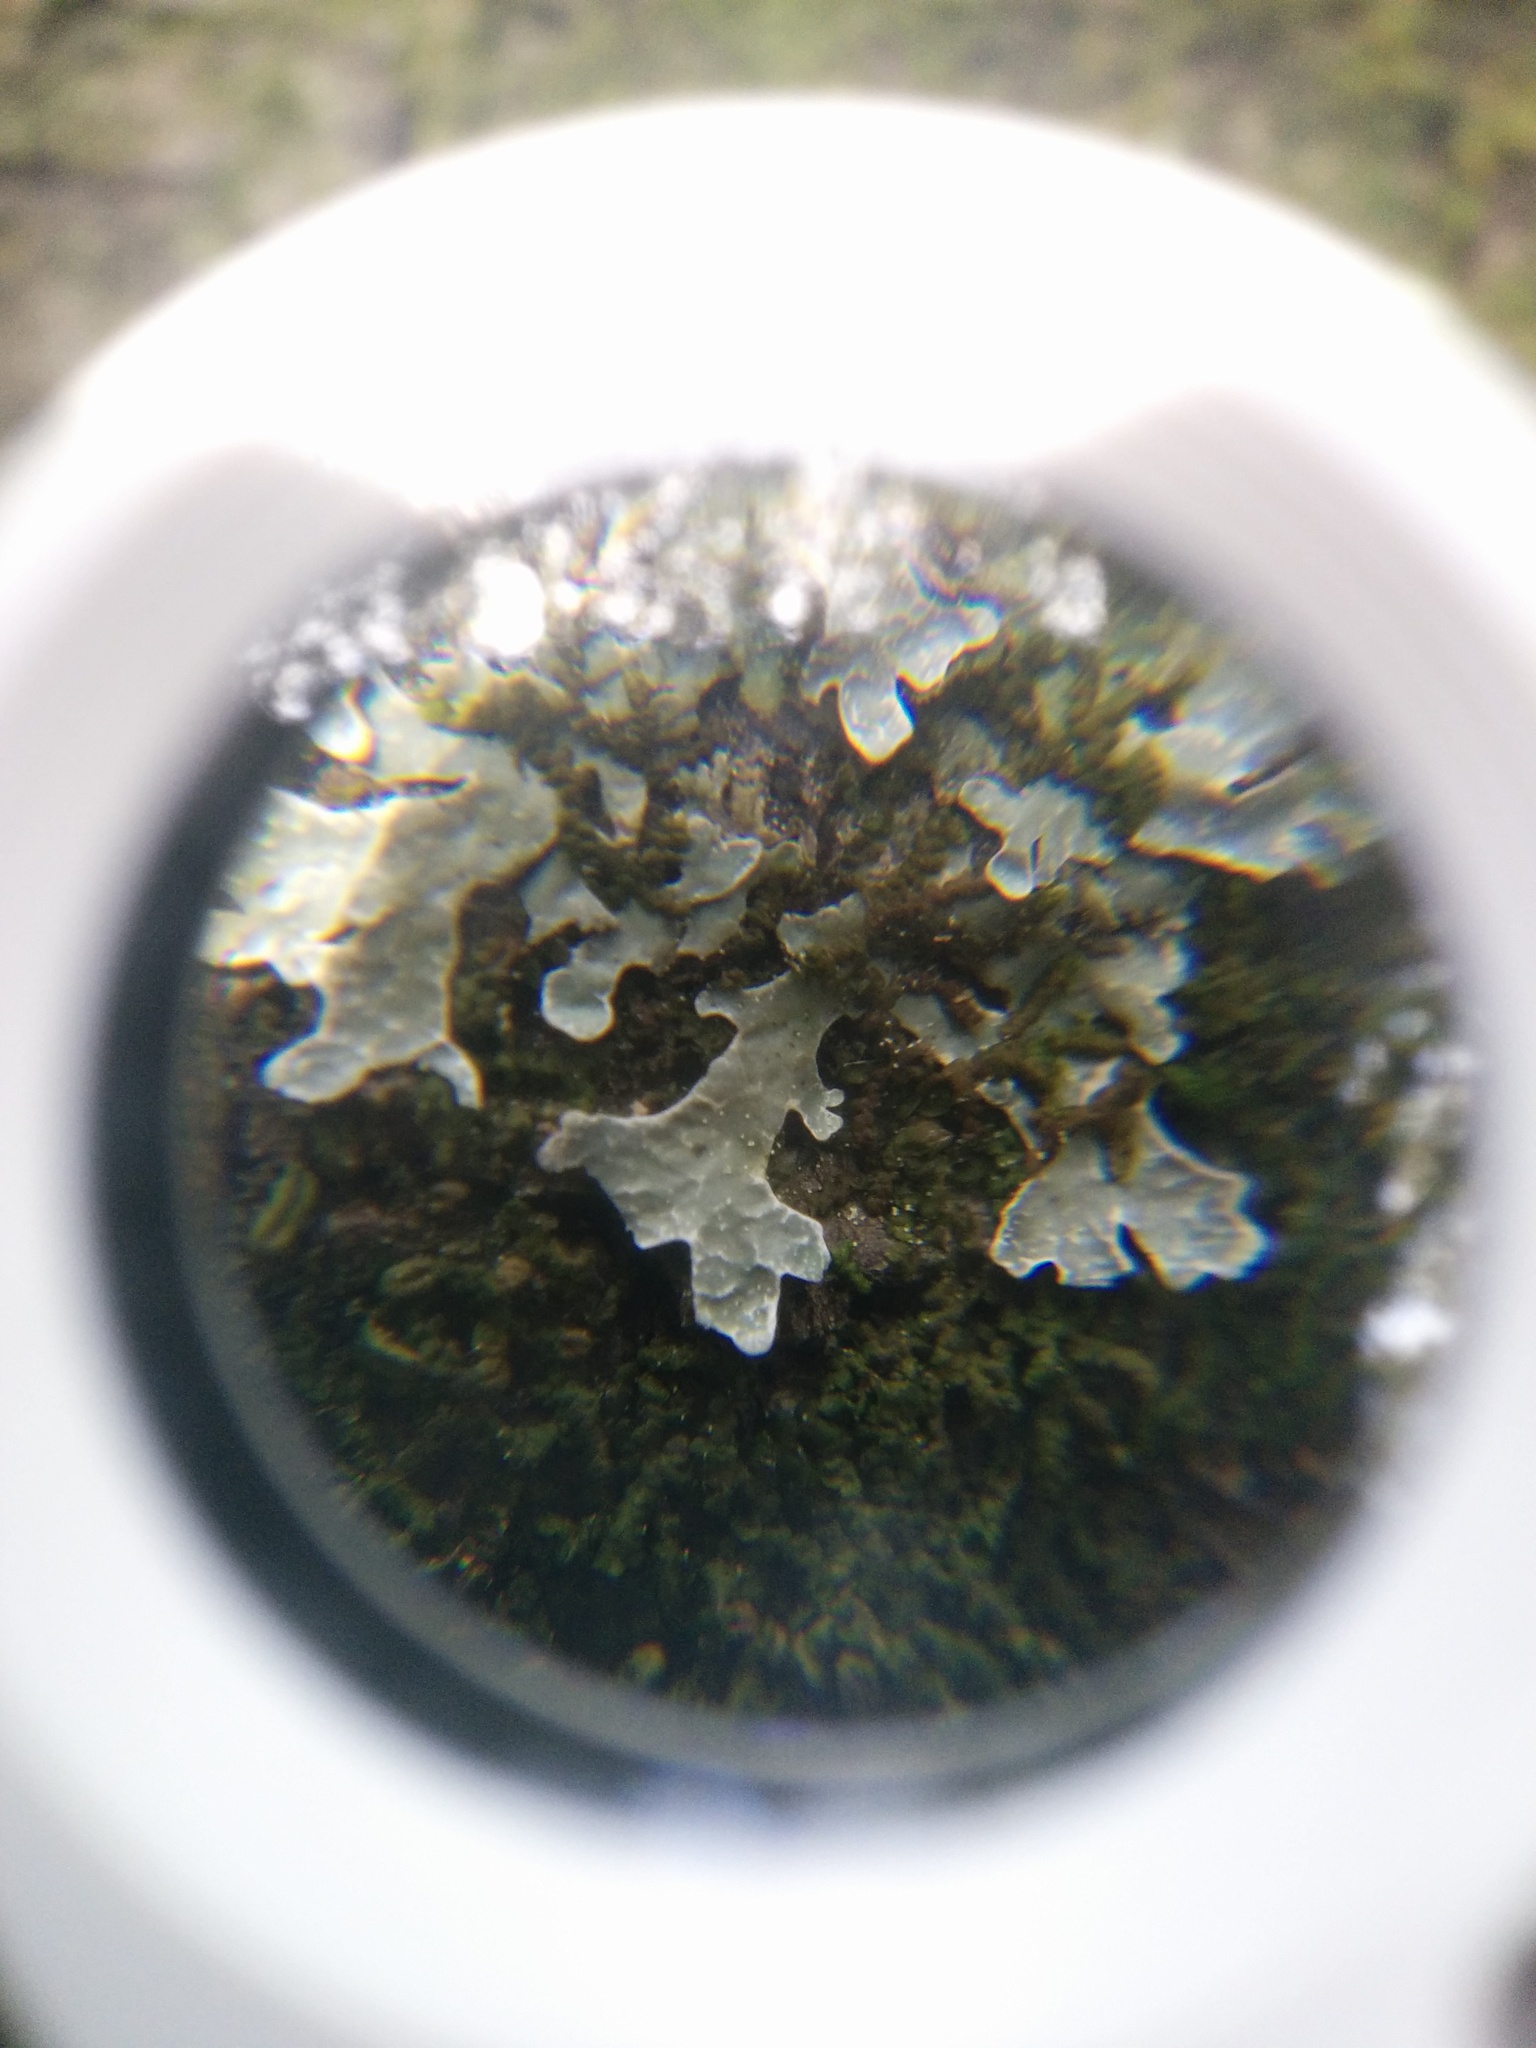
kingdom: Fungi
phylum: Ascomycota
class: Lecanoromycetes
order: Lecanorales
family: Parmeliaceae
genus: Parmelia
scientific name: Parmelia sulcata
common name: Netted shield lichen
